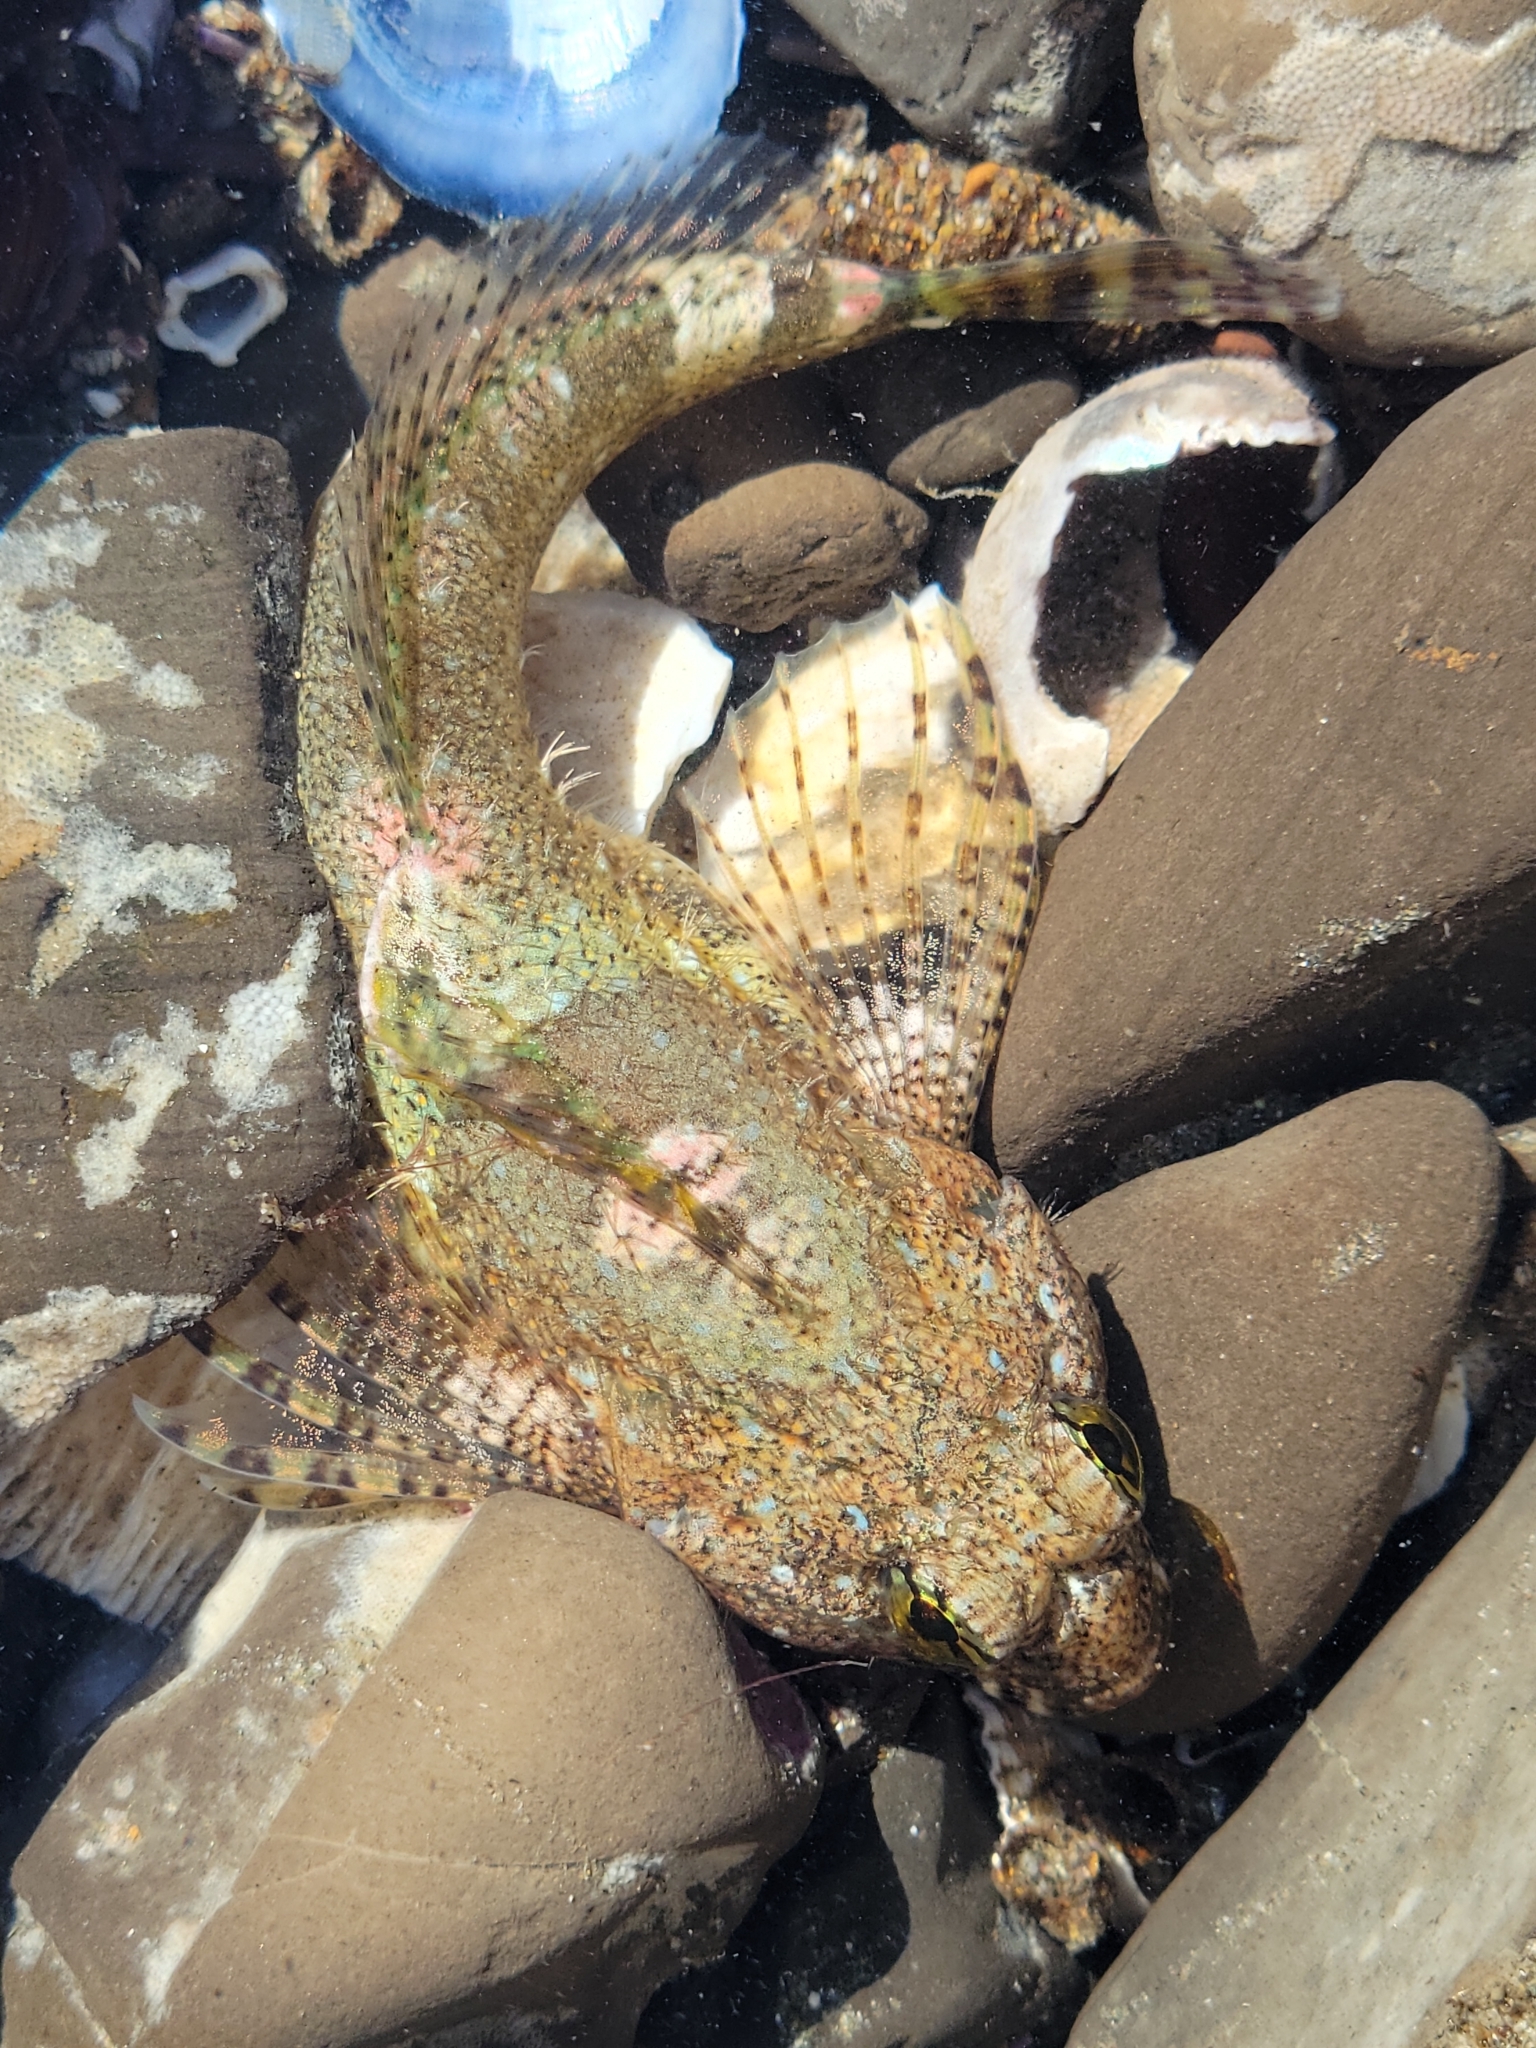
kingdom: Animalia
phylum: Chordata
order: Scorpaeniformes
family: Cottidae
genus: Clinocottus
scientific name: Clinocottus analis
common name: Woolly sculpin
